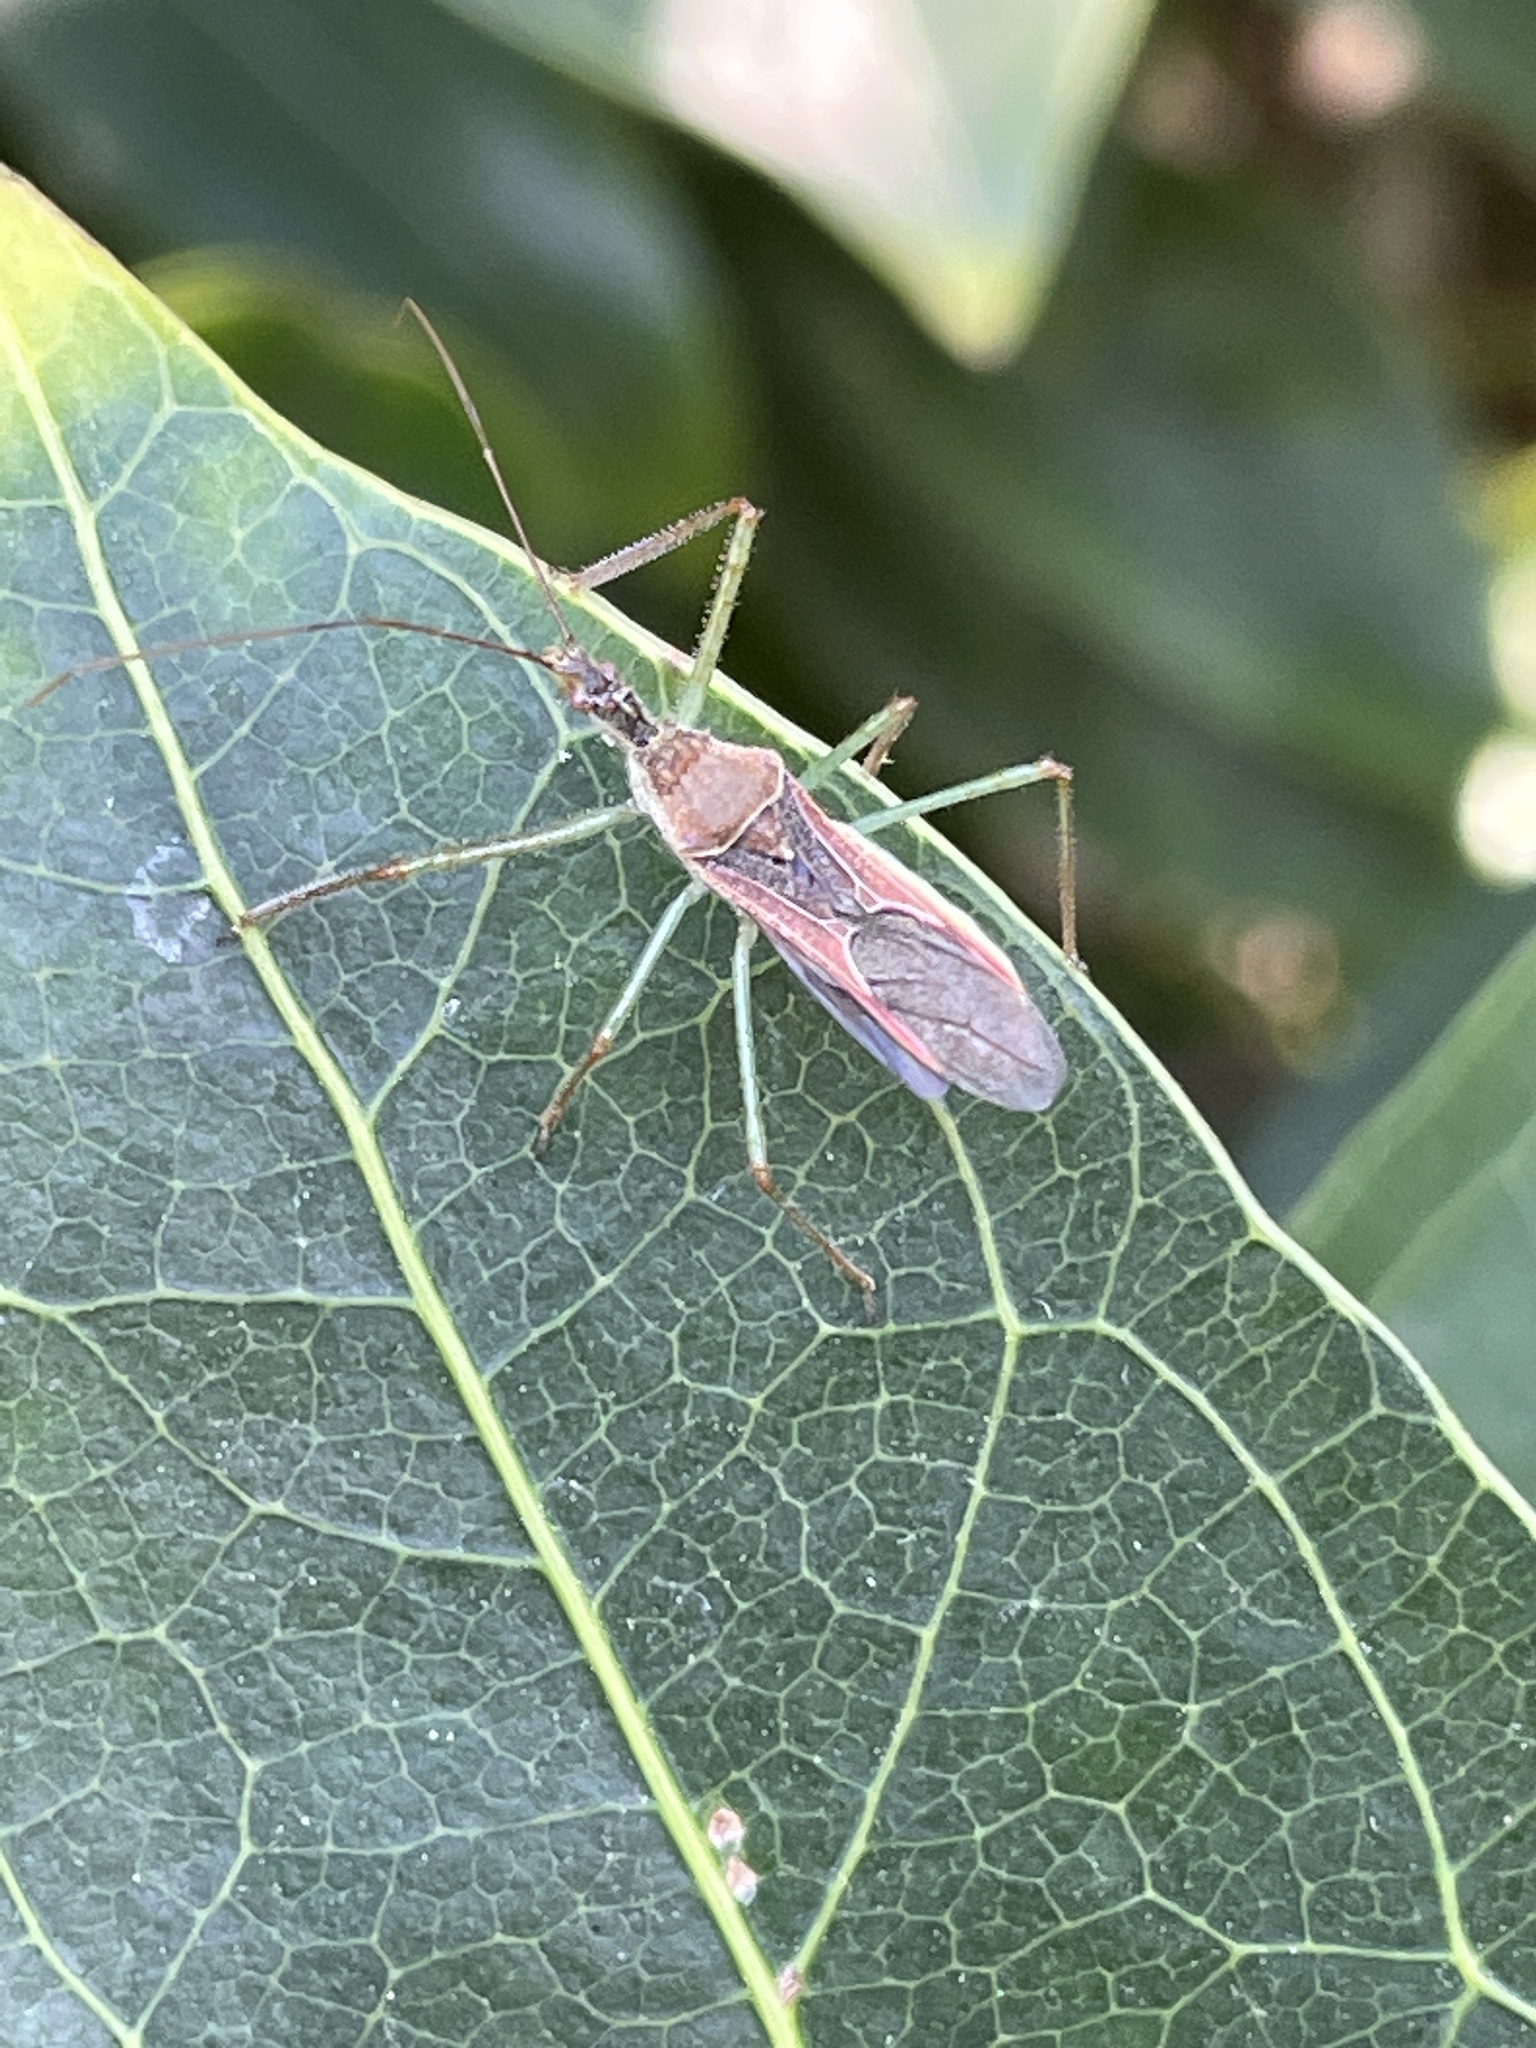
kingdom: Animalia
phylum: Arthropoda
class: Insecta
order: Hemiptera
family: Reduviidae
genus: Zelus
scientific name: Zelus renardii
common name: Assassin bug
